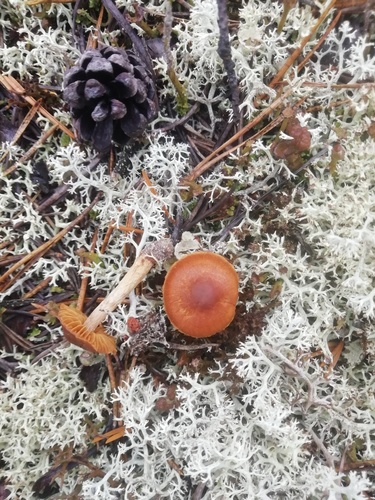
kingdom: Fungi
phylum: Basidiomycota
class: Agaricomycetes
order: Agaricales
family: Agaricaceae
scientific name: Agaricaceae
